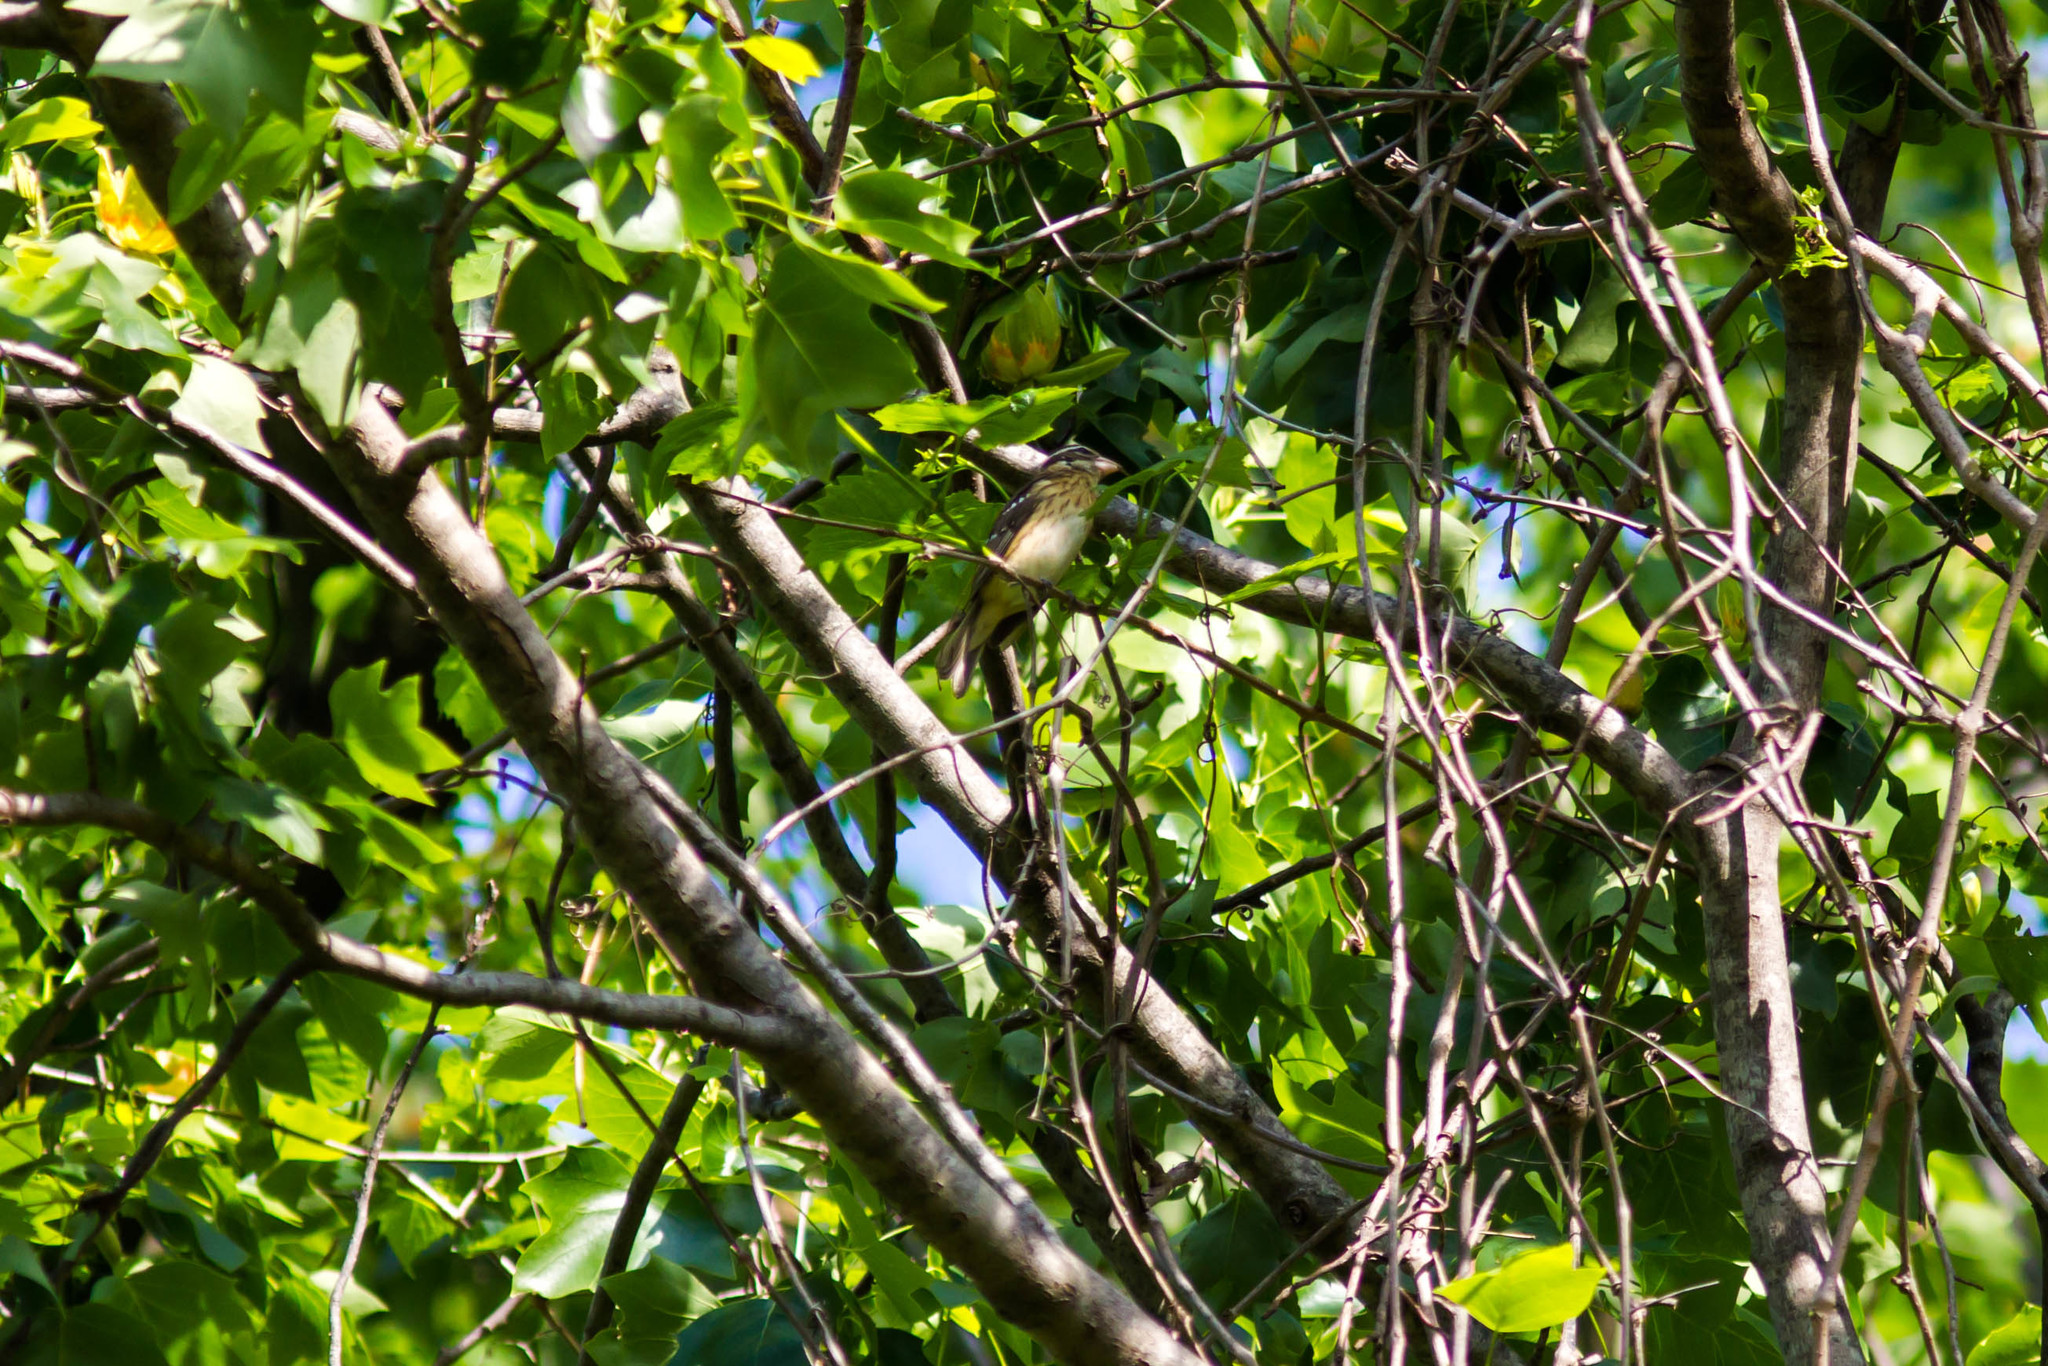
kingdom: Animalia
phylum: Chordata
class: Aves
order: Passeriformes
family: Cardinalidae
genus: Pheucticus
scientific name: Pheucticus ludovicianus
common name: Rose-breasted grosbeak
